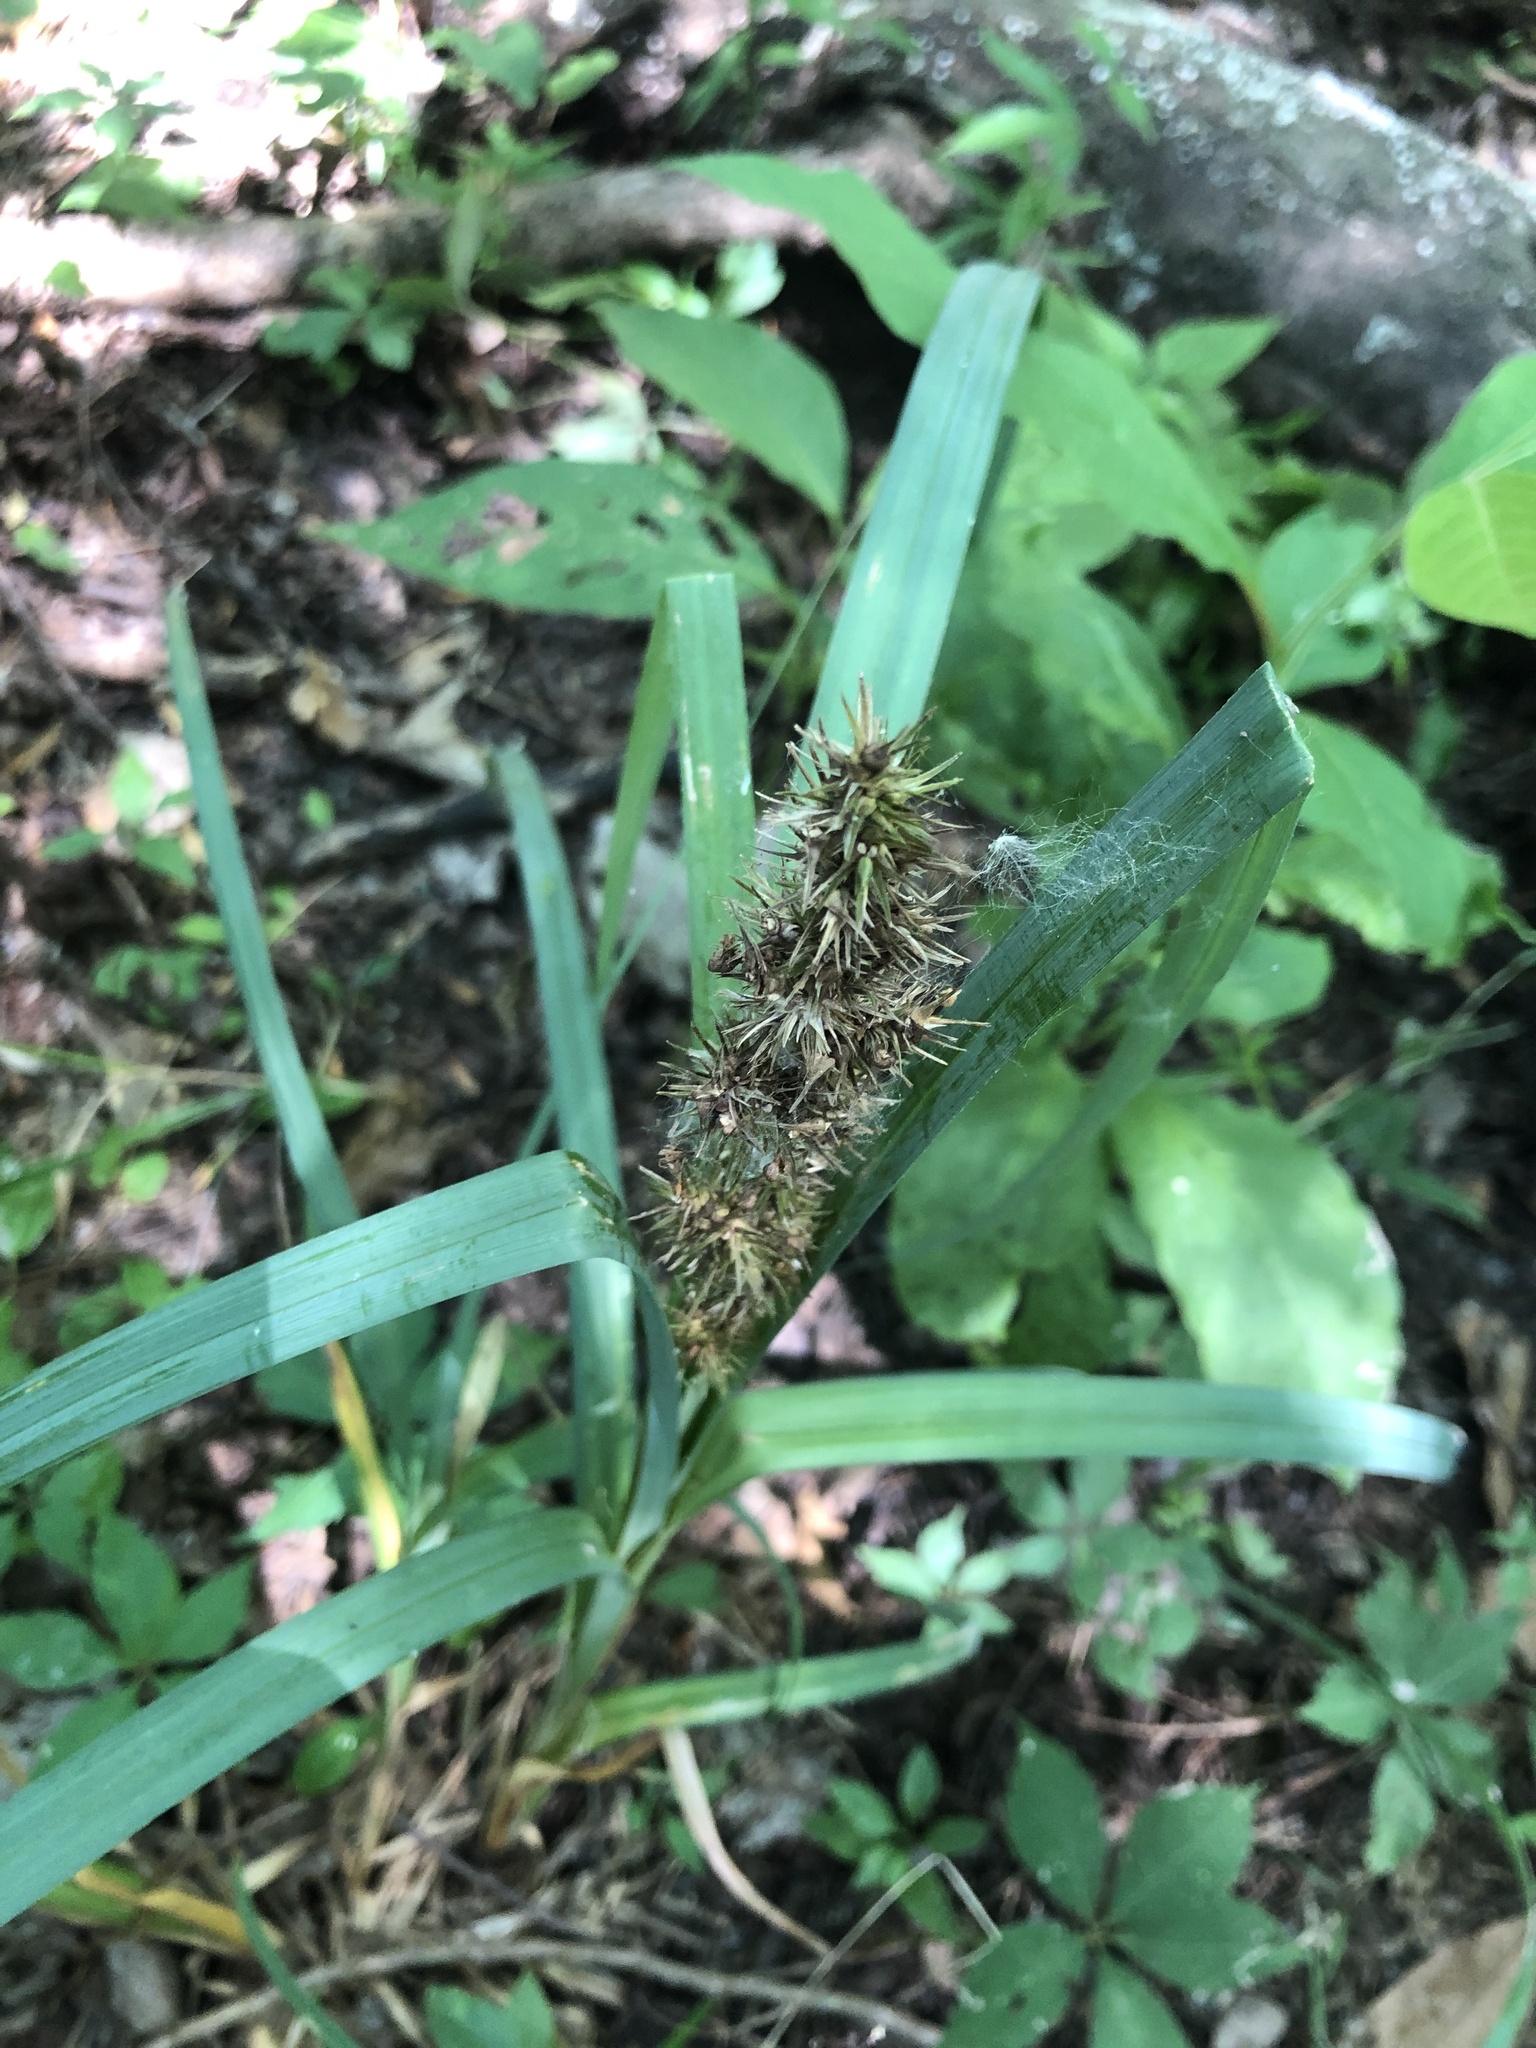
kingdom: Plantae
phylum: Tracheophyta
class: Liliopsida
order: Poales
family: Cyperaceae
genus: Carex
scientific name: Carex crus-corvi
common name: Crow-spur sedge
